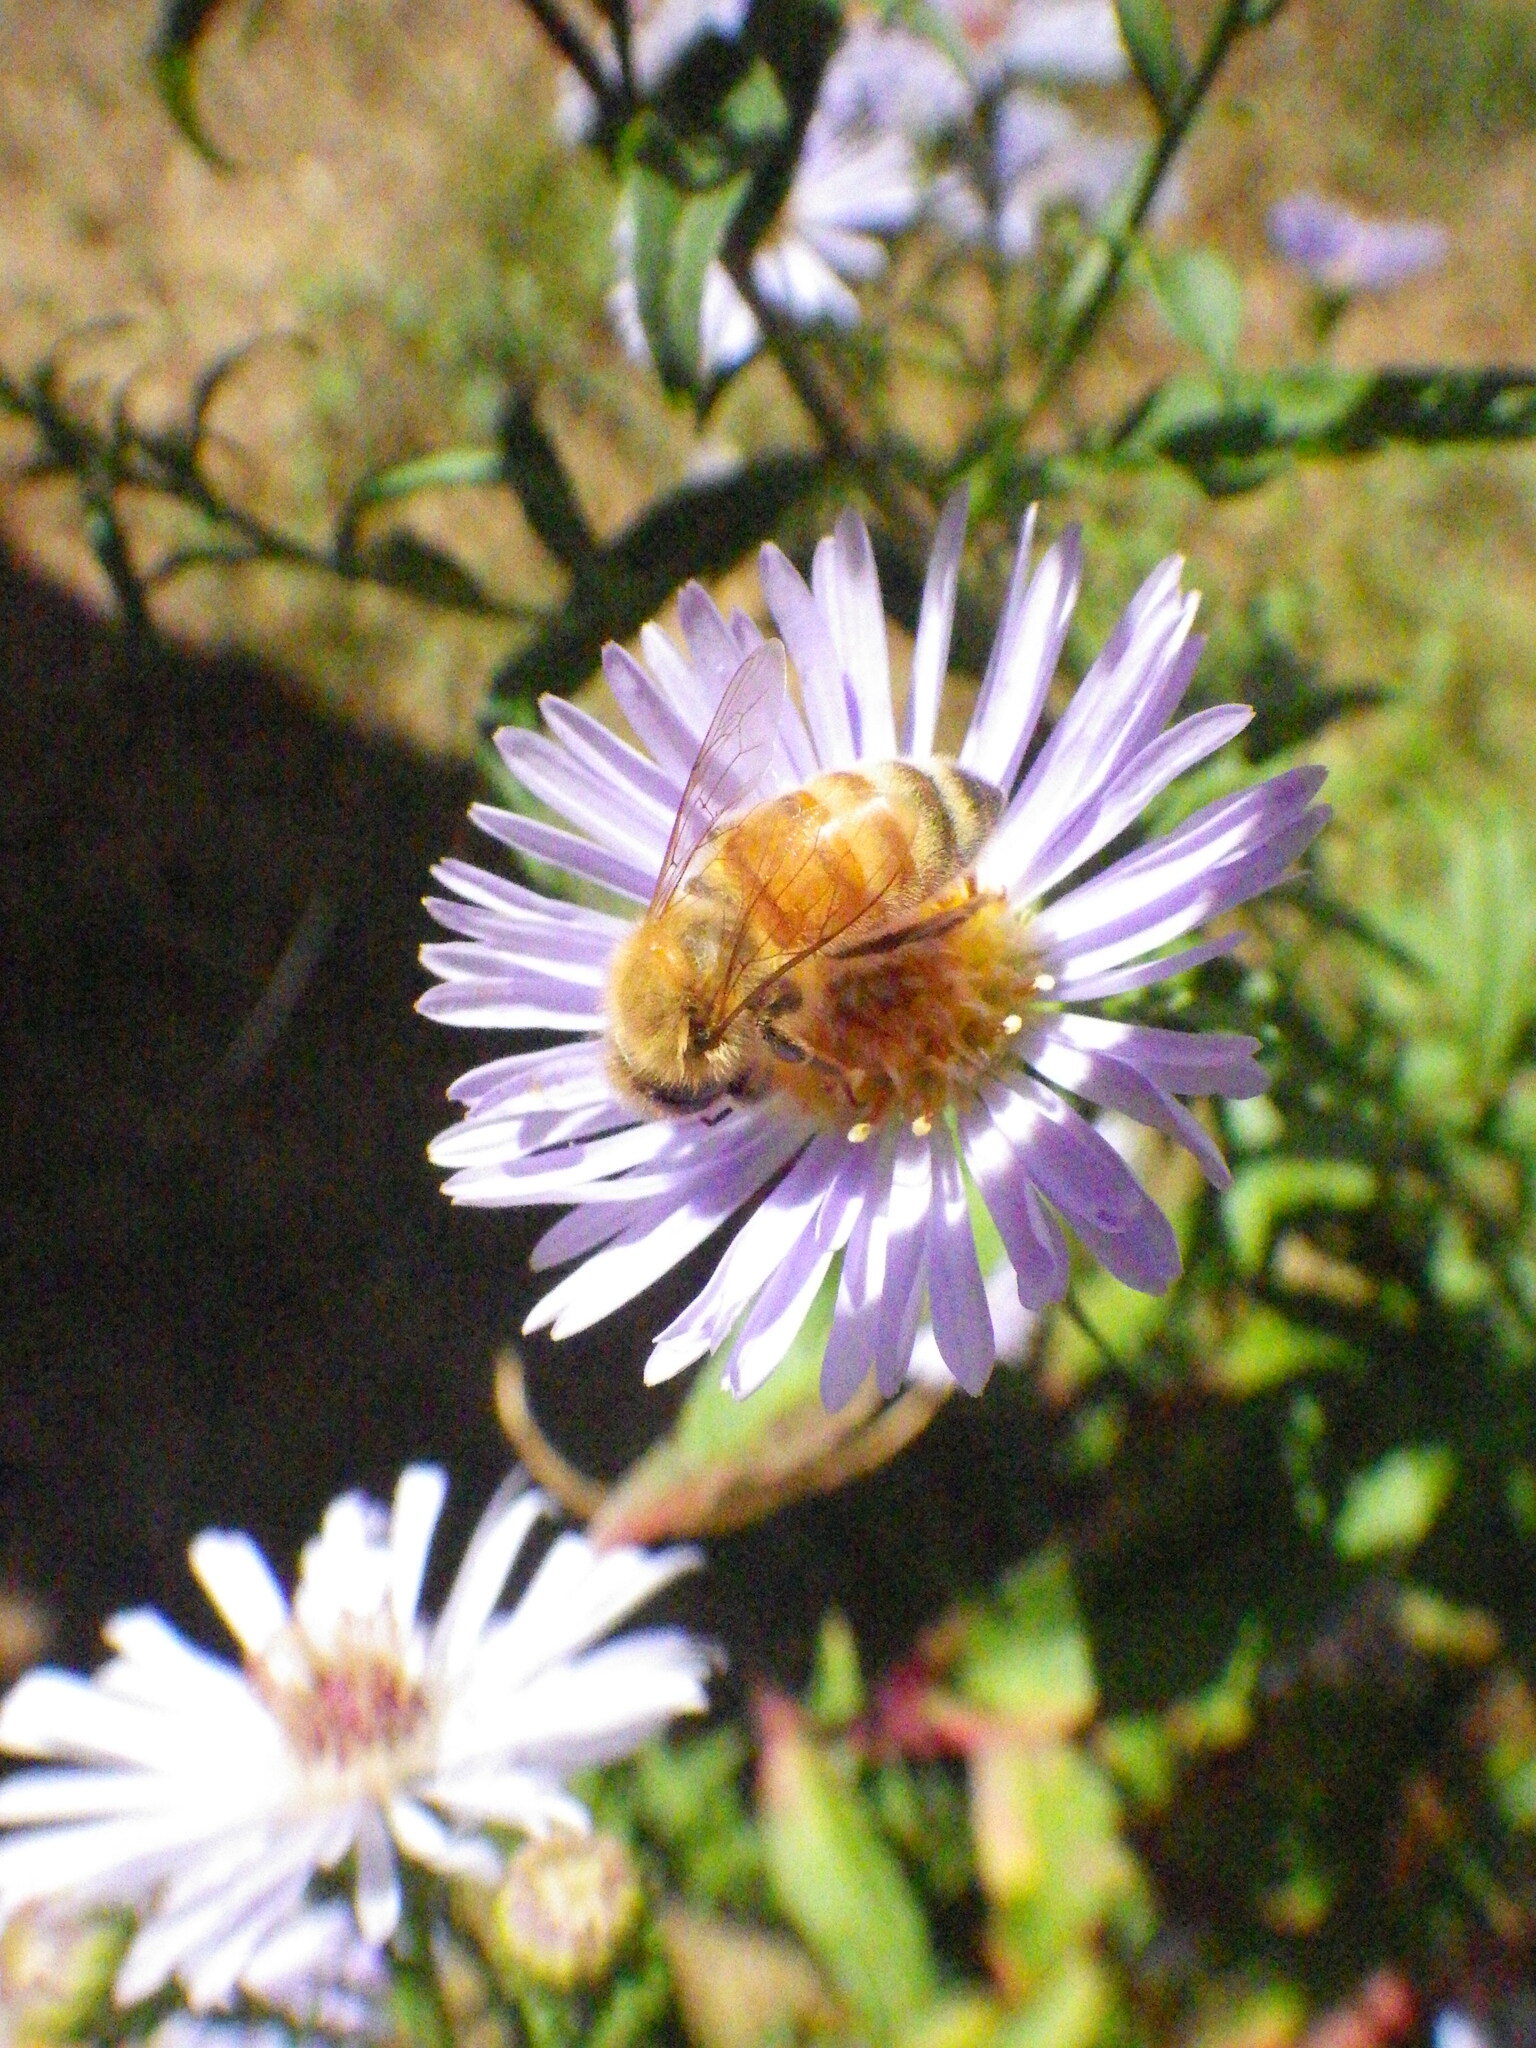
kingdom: Animalia
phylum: Arthropoda
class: Insecta
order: Hymenoptera
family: Apidae
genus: Apis
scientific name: Apis mellifera
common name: Honey bee
